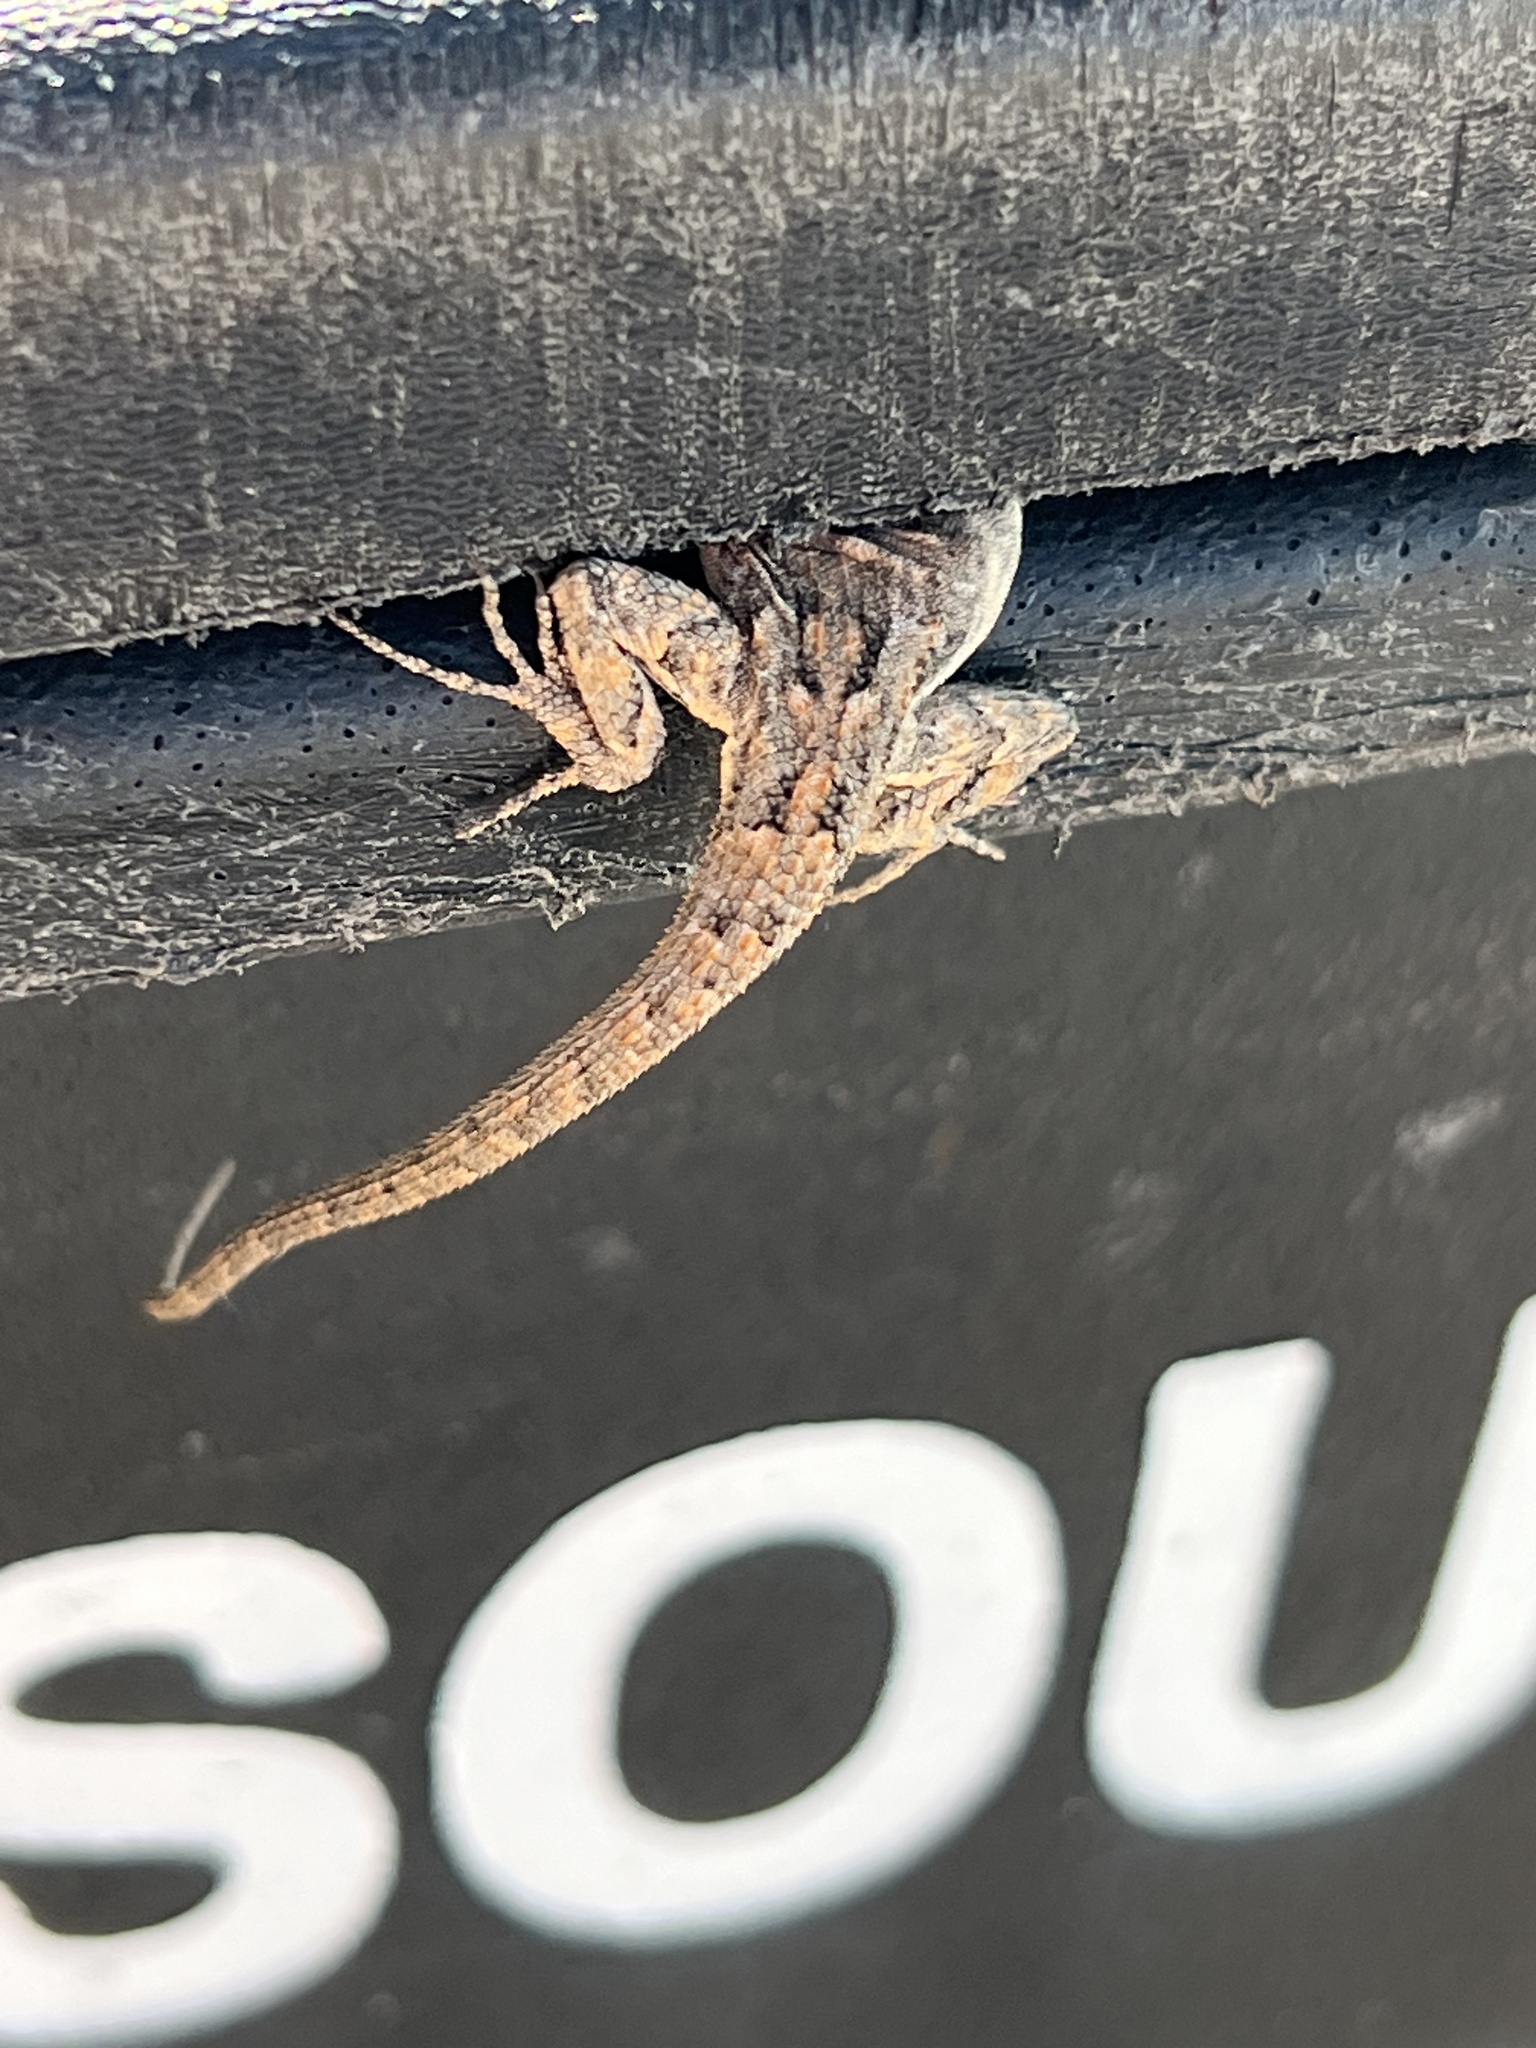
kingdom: Animalia
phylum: Chordata
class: Squamata
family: Phrynosomatidae
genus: Urosaurus
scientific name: Urosaurus ornatus
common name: Ornate tree lizard
